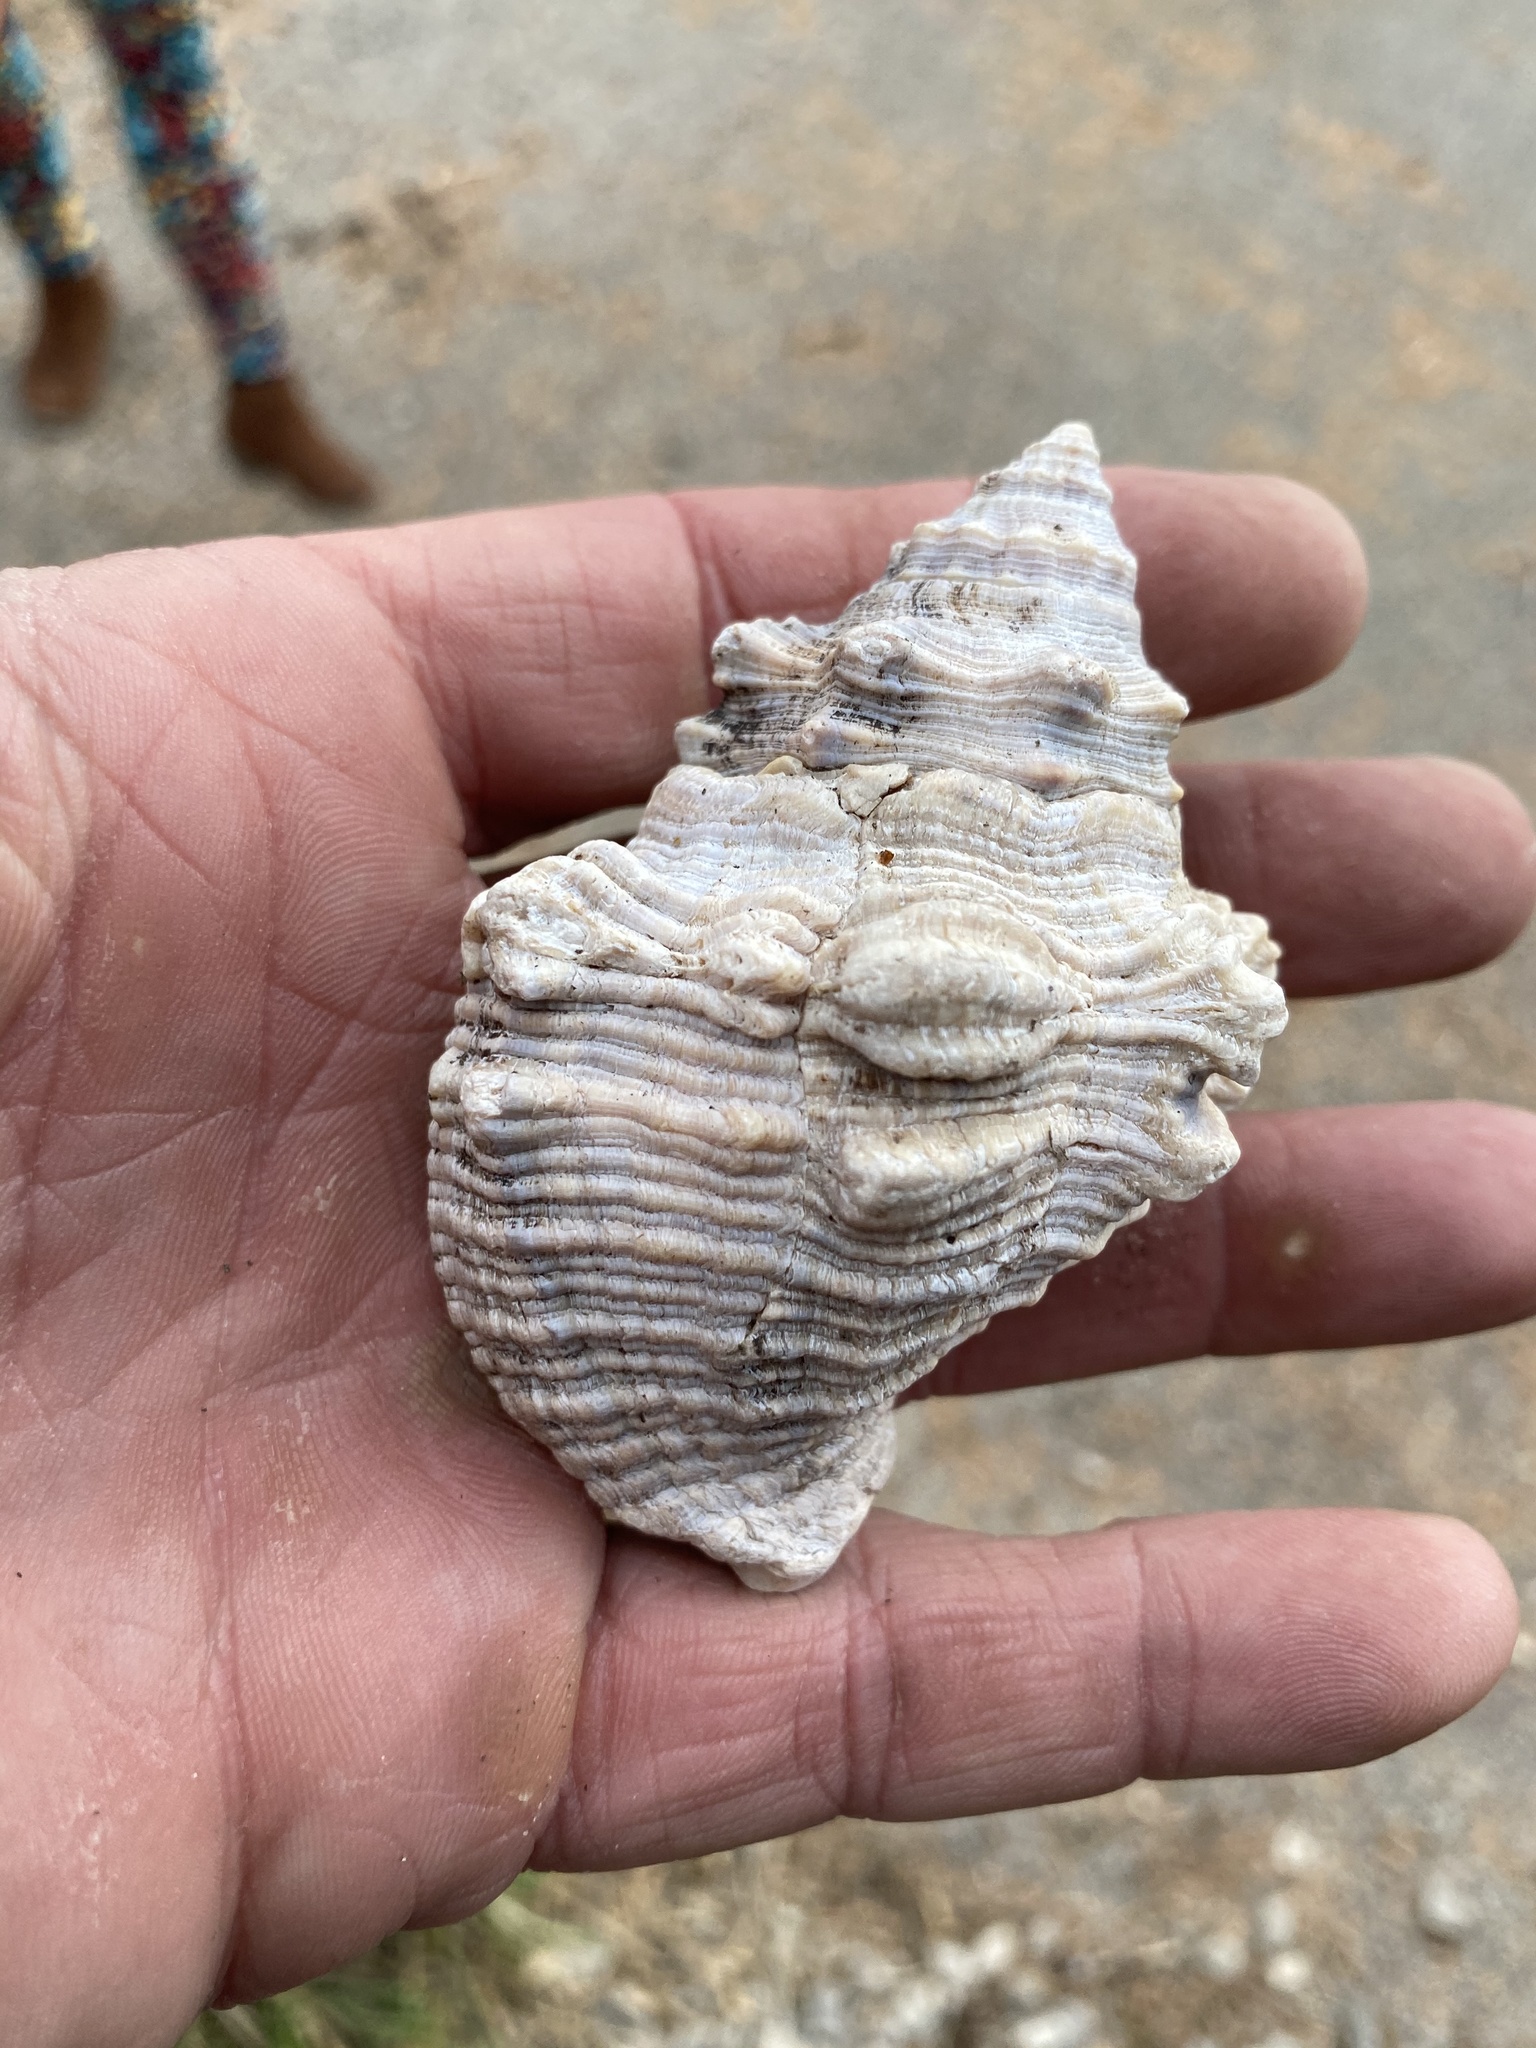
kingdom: Animalia
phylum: Mollusca
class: Gastropoda
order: Neogastropoda
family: Muricidae
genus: Stramonita
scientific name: Stramonita canaliculata
